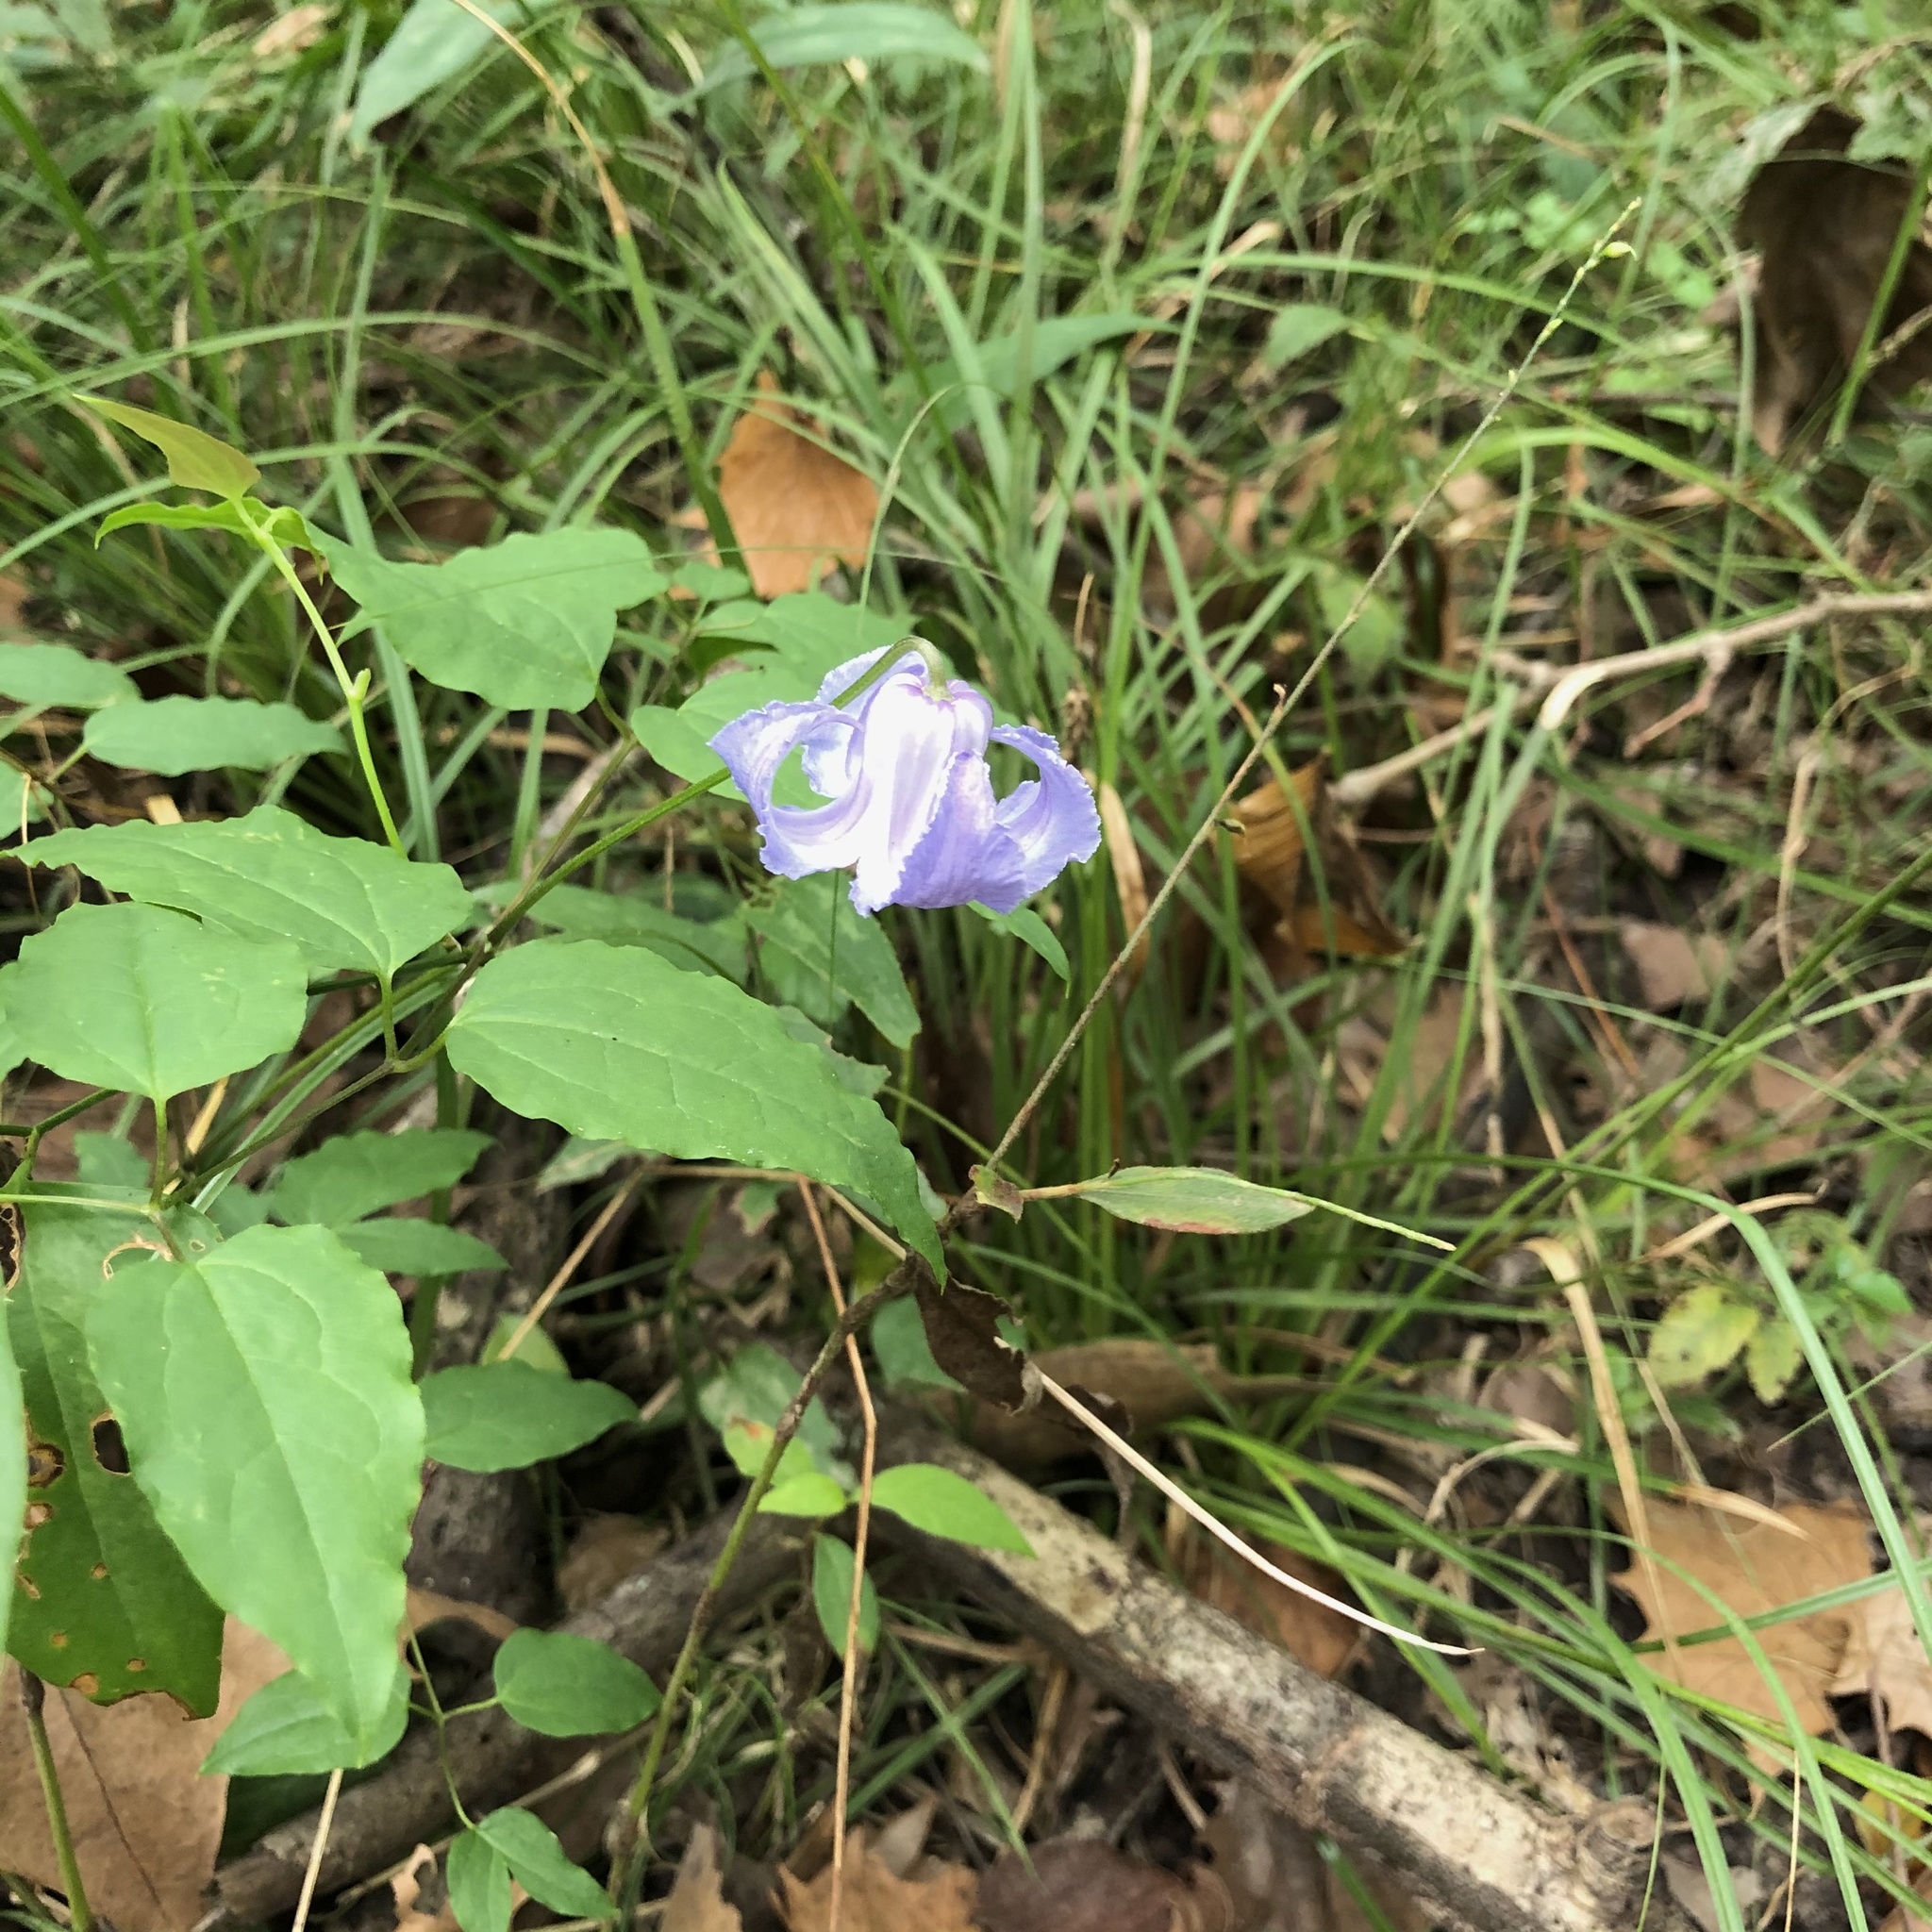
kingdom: Plantae
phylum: Tracheophyta
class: Magnoliopsida
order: Ranunculales
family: Ranunculaceae
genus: Clematis
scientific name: Clematis crispa
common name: Curly clematis
